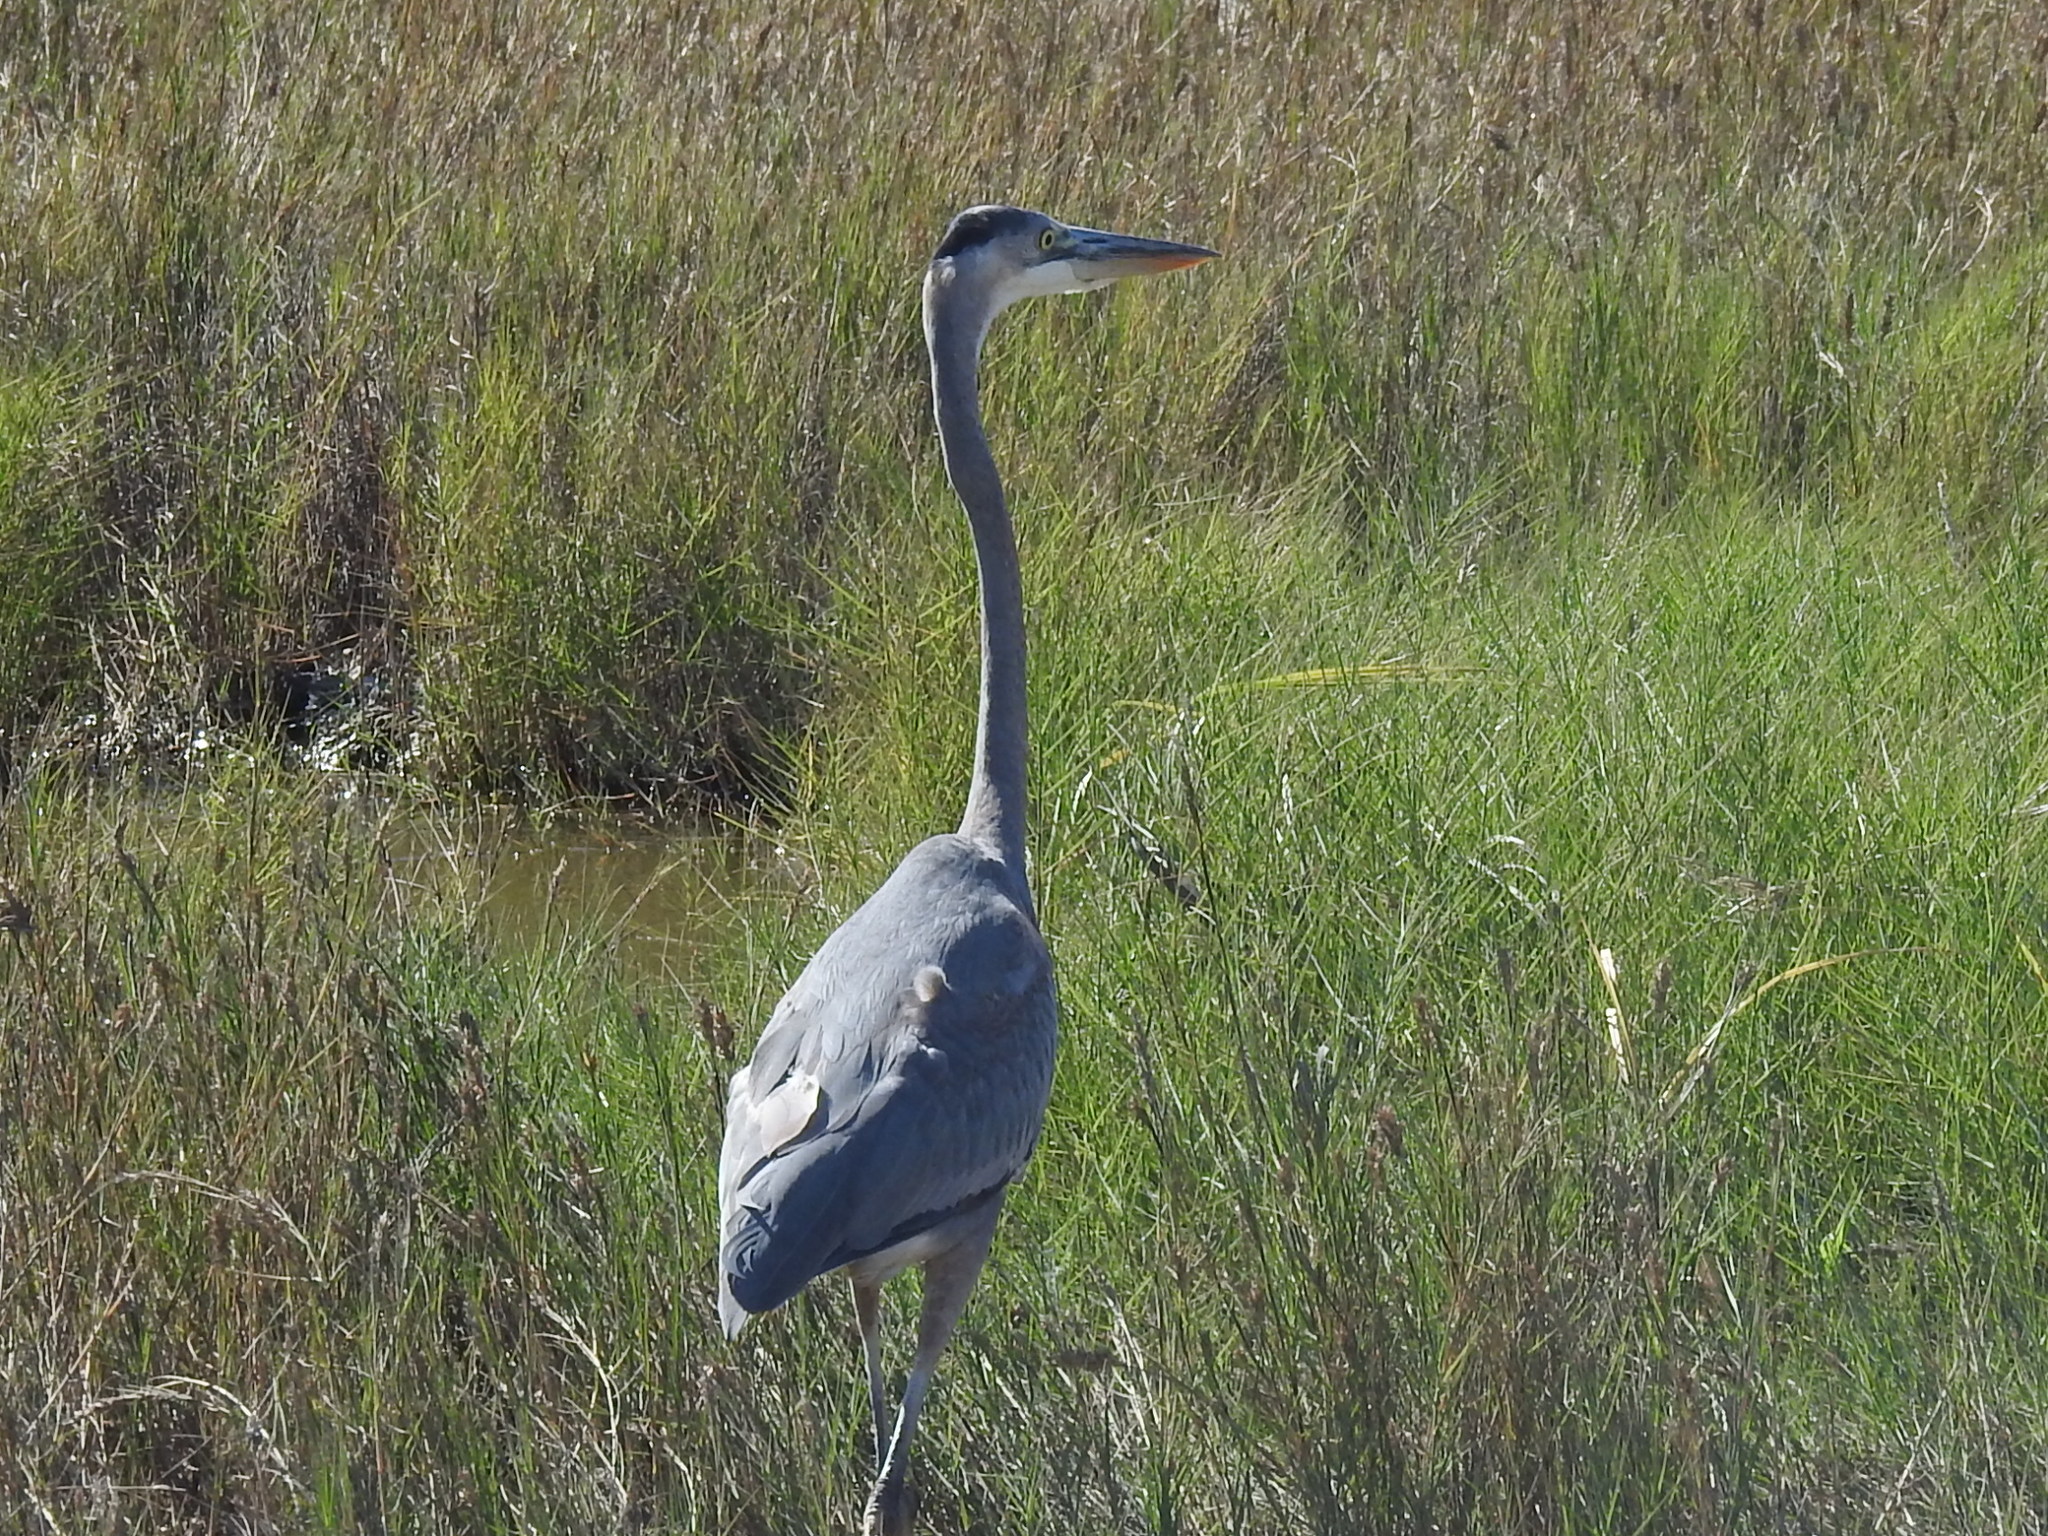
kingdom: Animalia
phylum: Chordata
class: Aves
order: Pelecaniformes
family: Ardeidae
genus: Ardea
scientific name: Ardea herodias
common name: Great blue heron
